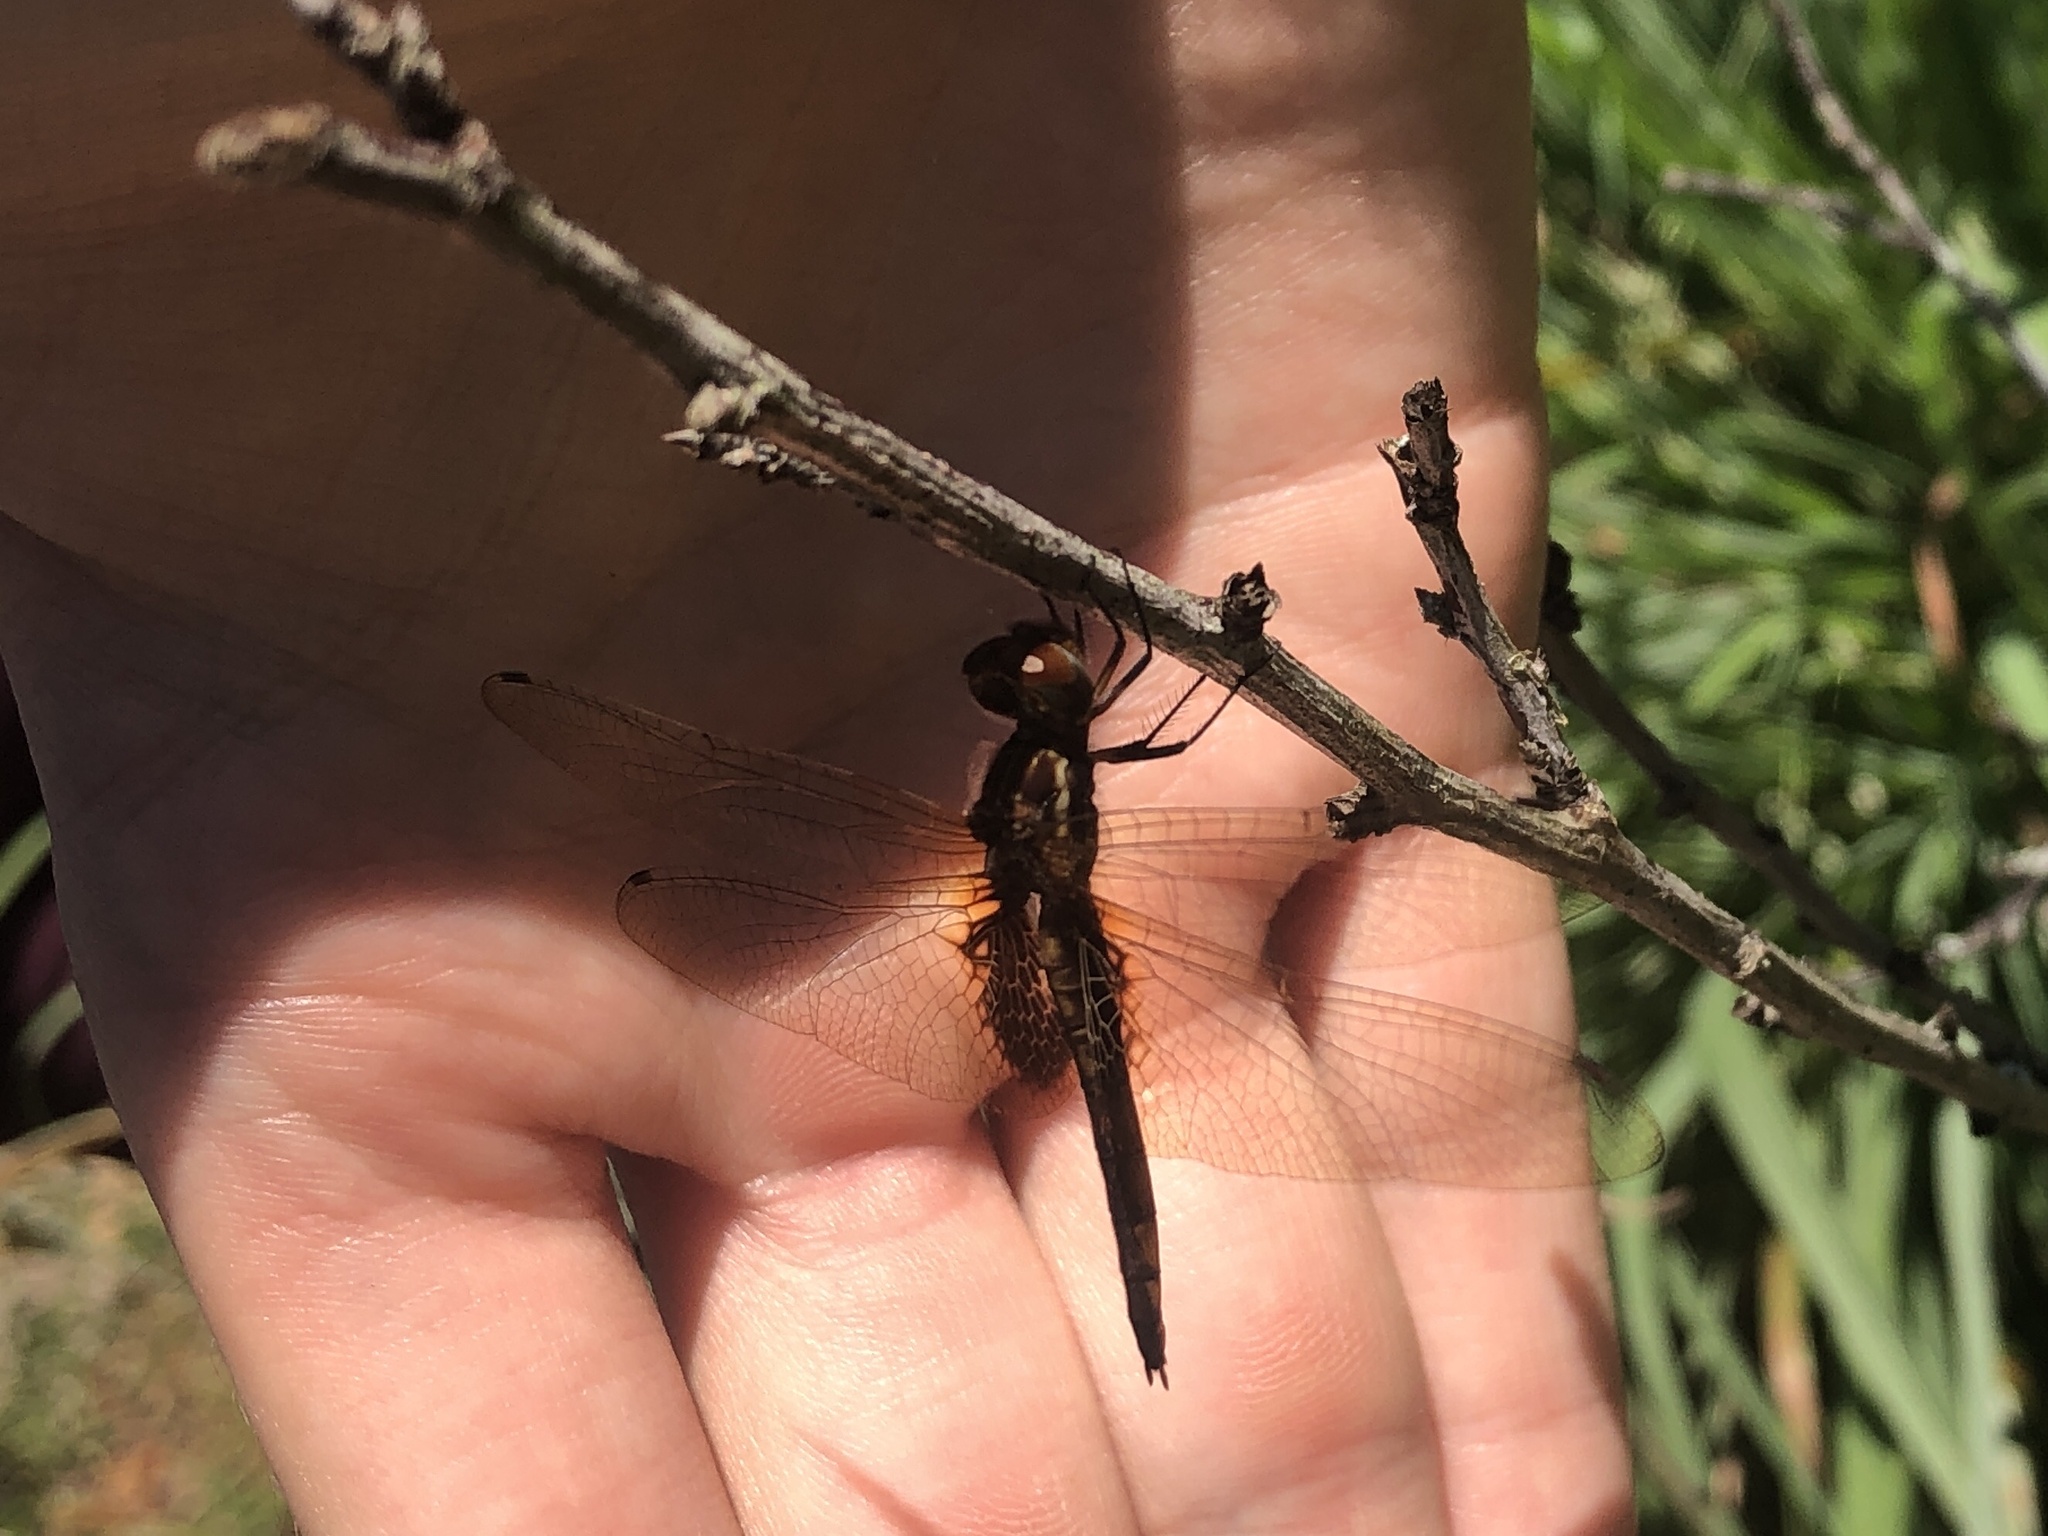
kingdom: Animalia
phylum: Arthropoda
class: Insecta
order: Odonata
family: Libellulidae
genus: Miathyria
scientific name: Miathyria marcella
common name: Hyacinth glider
